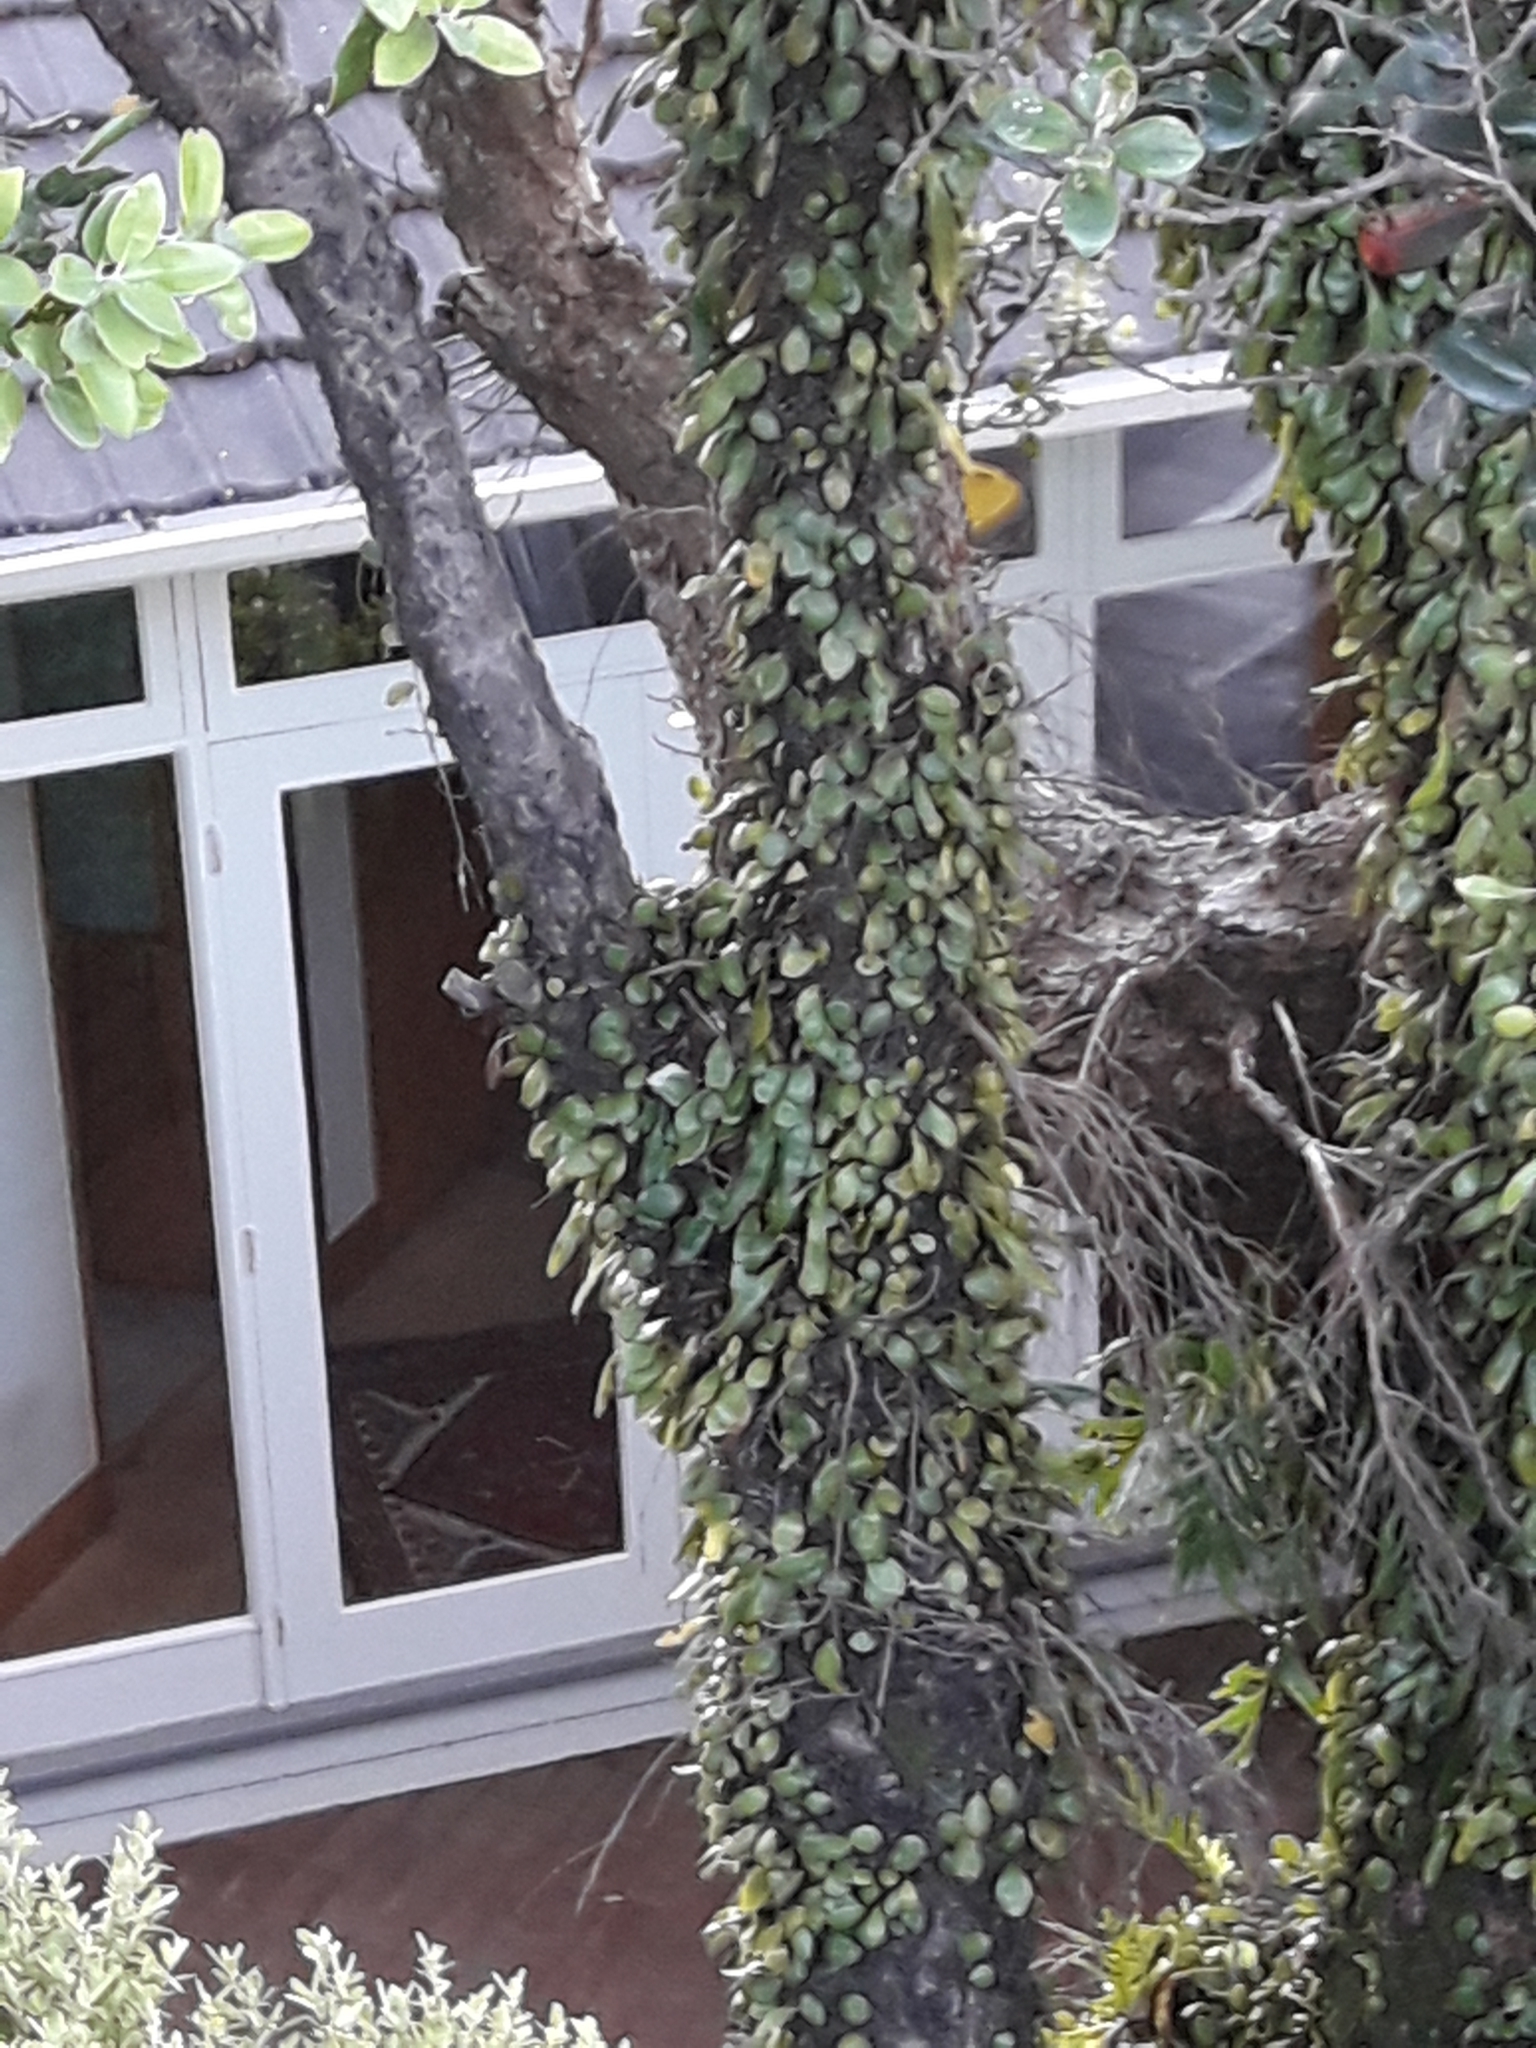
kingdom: Plantae
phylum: Tracheophyta
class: Polypodiopsida
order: Polypodiales
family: Polypodiaceae
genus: Pyrrosia
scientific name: Pyrrosia eleagnifolia
